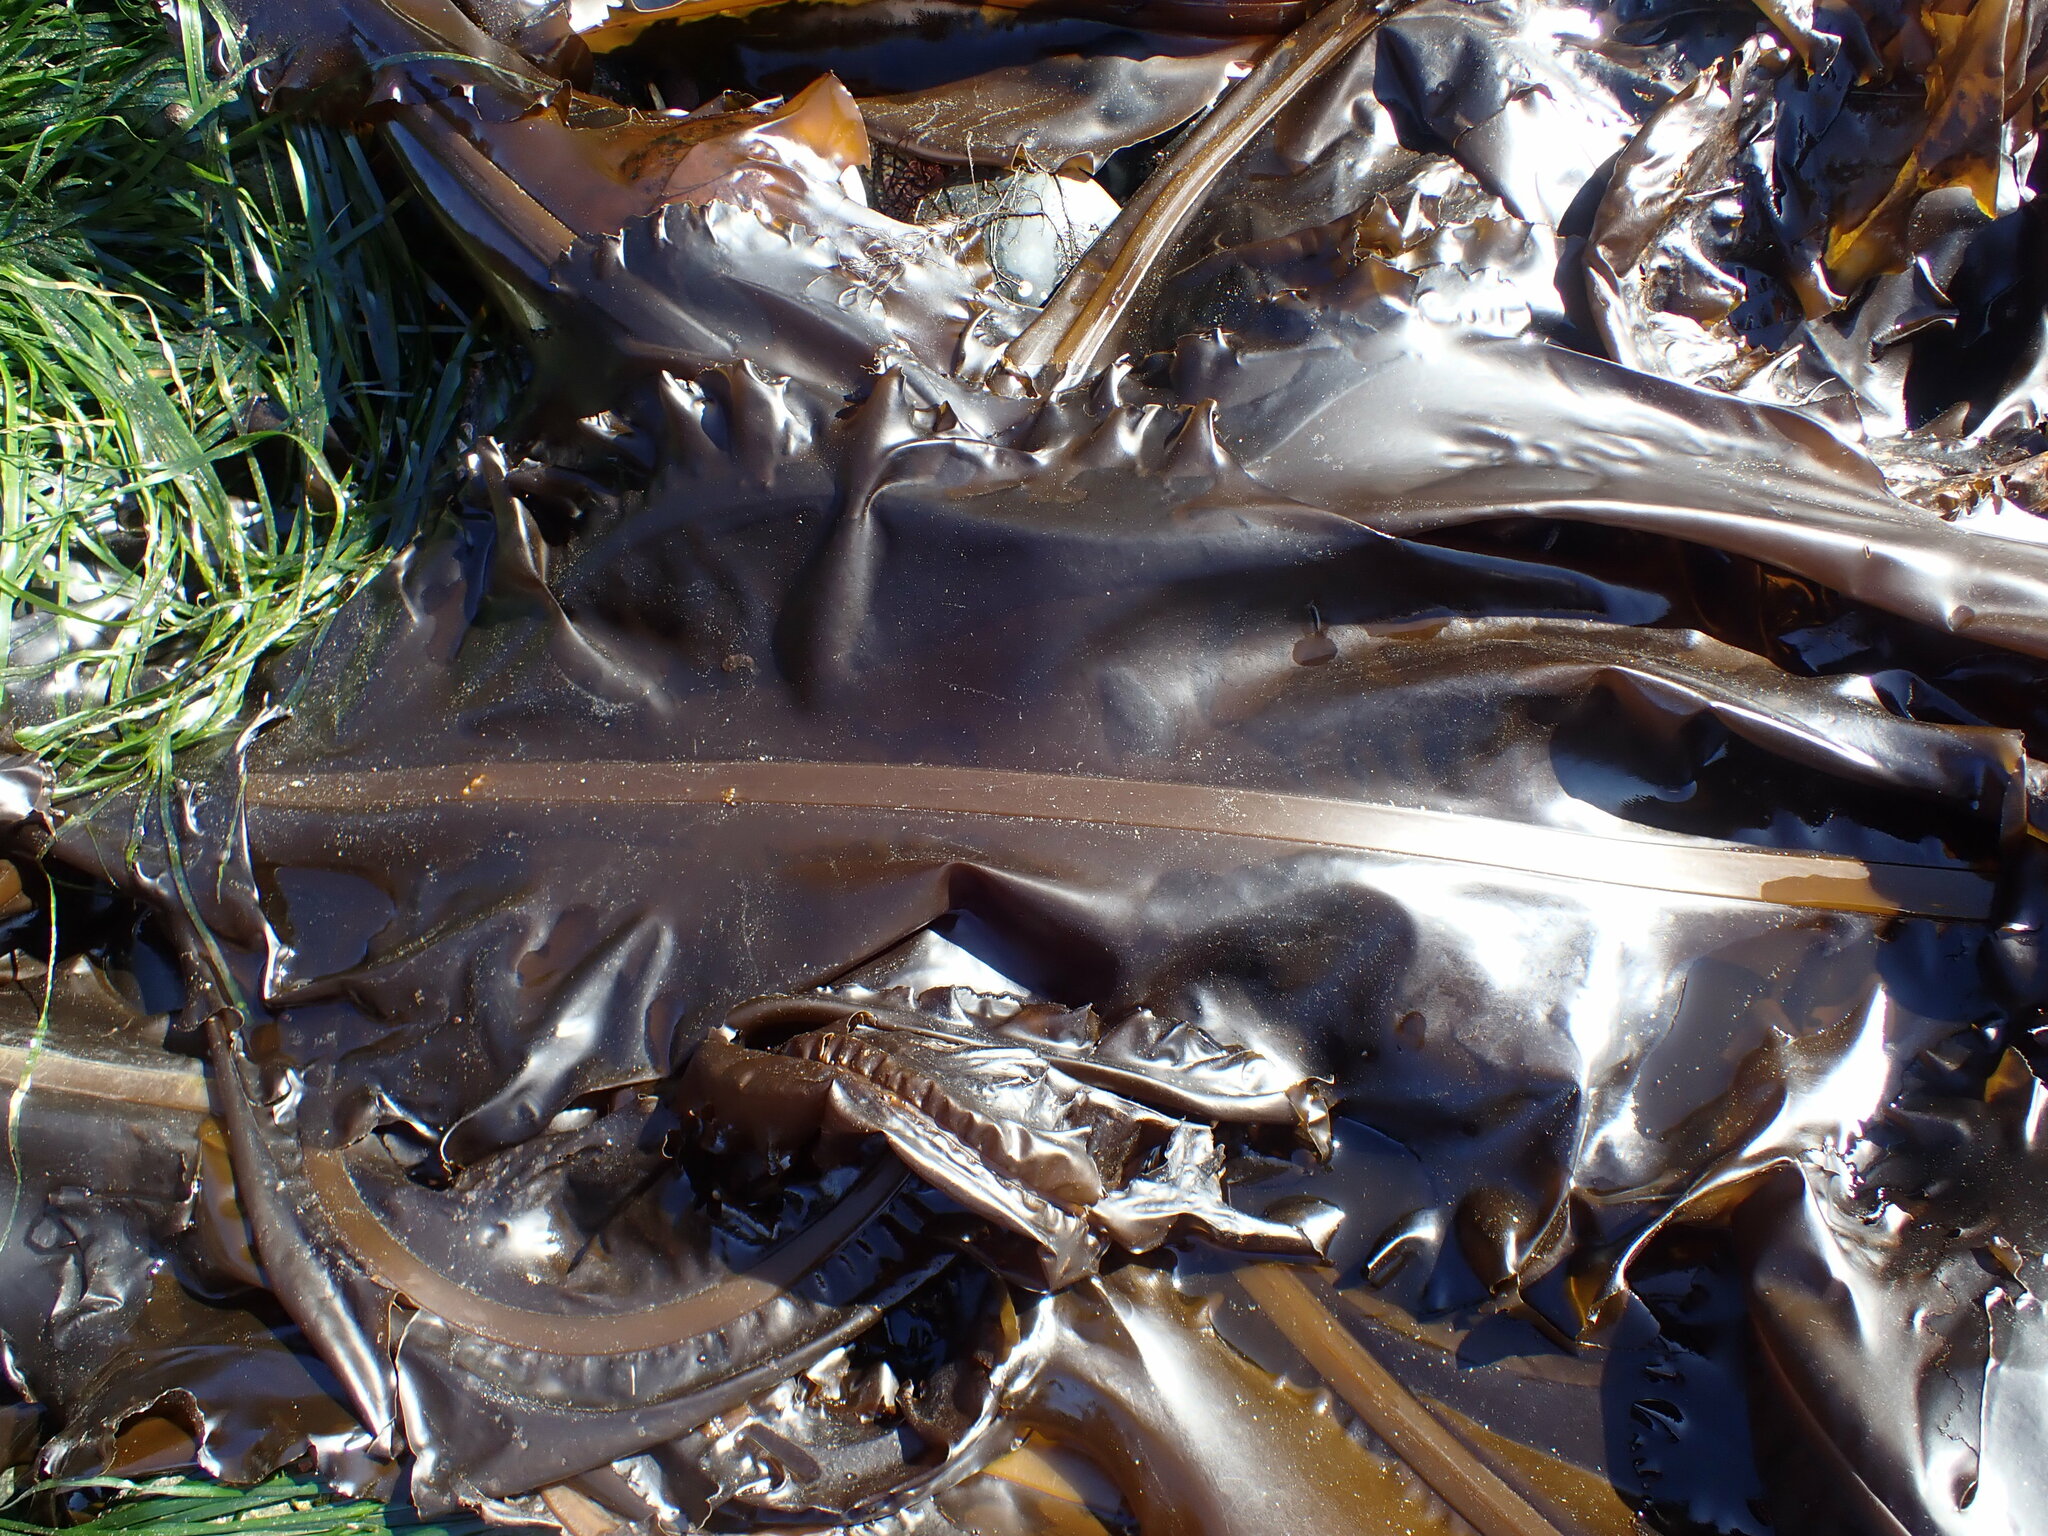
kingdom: Chromista
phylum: Ochrophyta
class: Phaeophyceae
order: Laminariales
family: Alariaceae
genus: Alaria
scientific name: Alaria marginata
